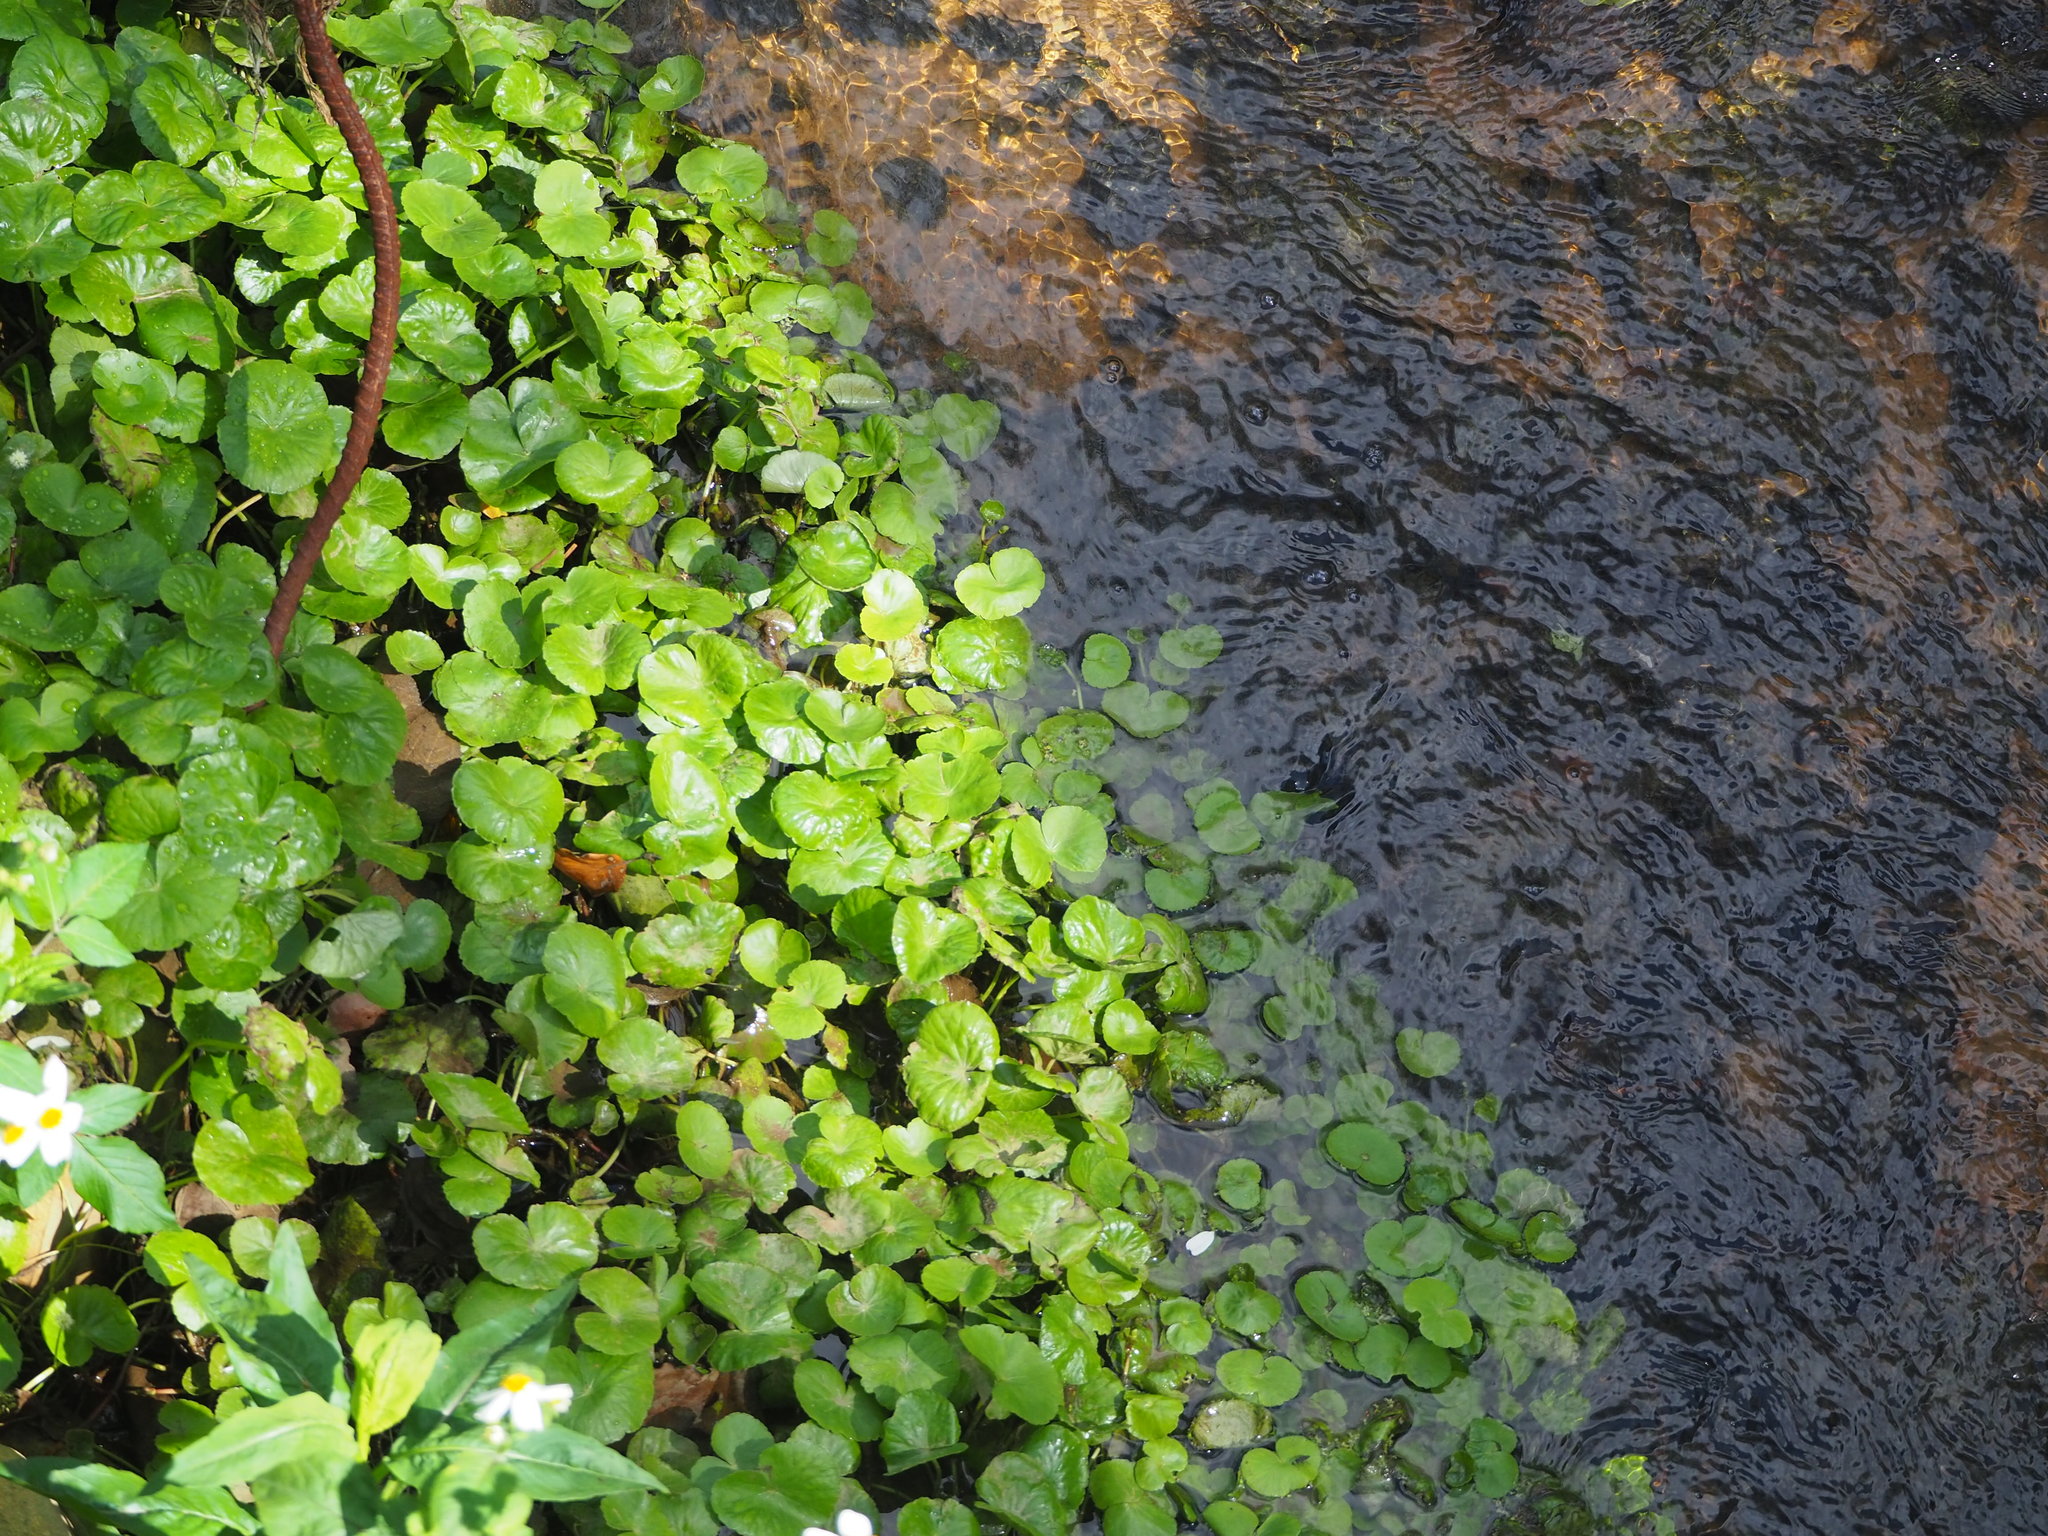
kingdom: Plantae
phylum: Tracheophyta
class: Magnoliopsida
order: Apiales
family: Araliaceae
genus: Hydrocotyle
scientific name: Hydrocotyle ranunculoides
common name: Floating pennywort
